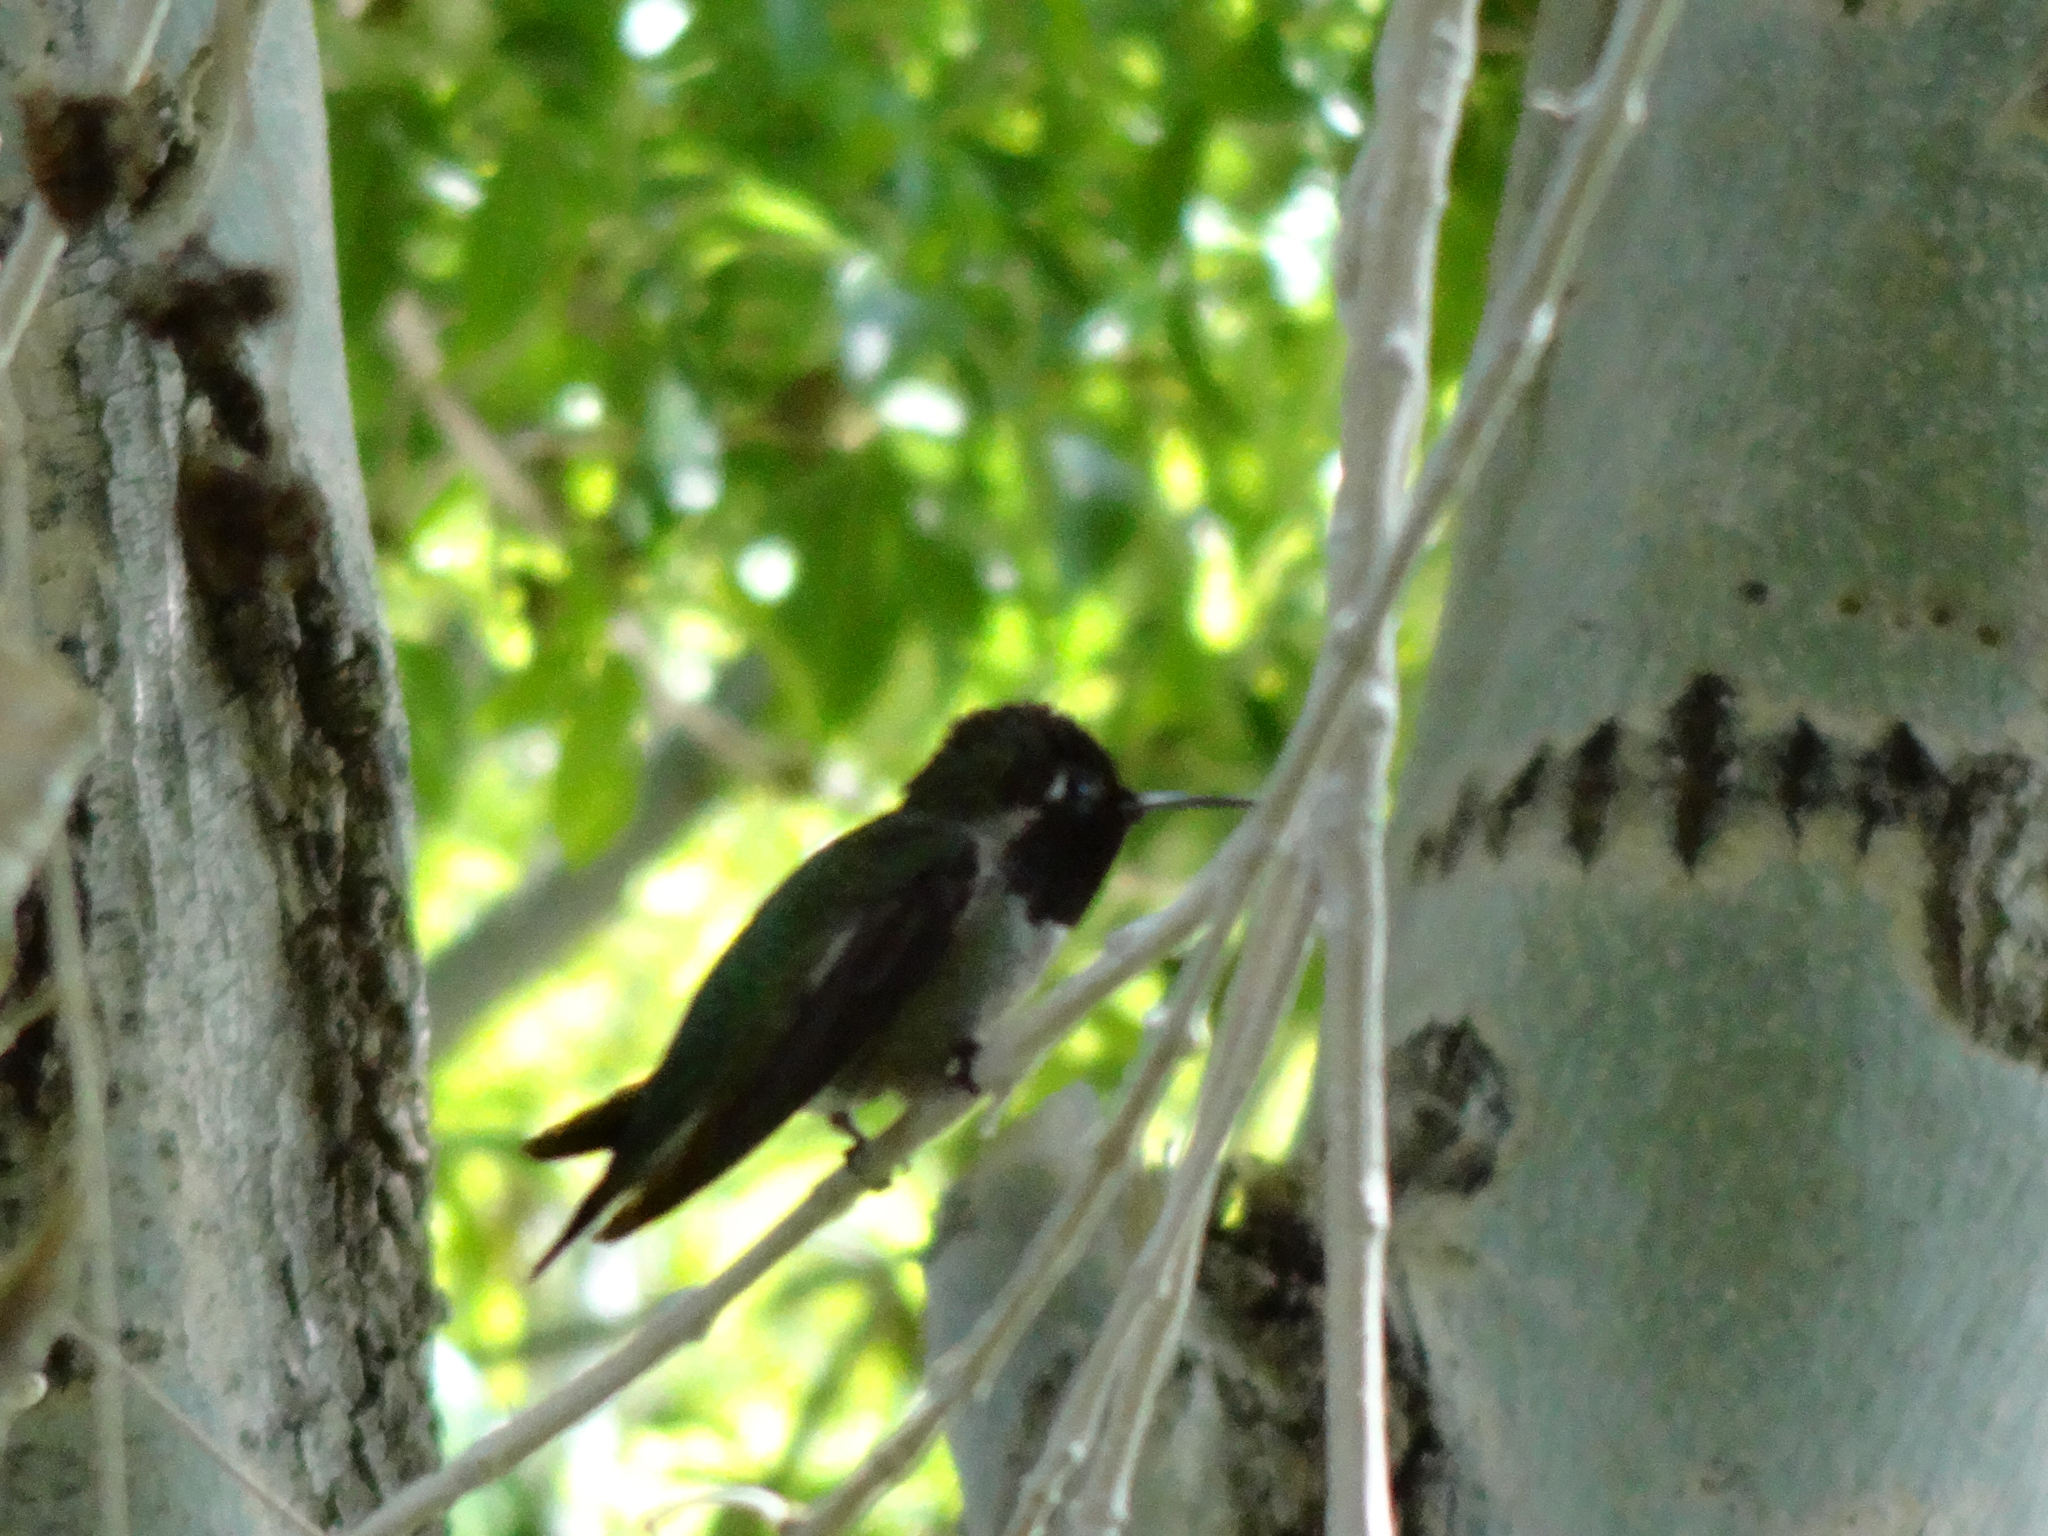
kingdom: Animalia
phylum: Chordata
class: Aves
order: Apodiformes
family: Trochilidae
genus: Calypte
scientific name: Calypte anna
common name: Anna's hummingbird
